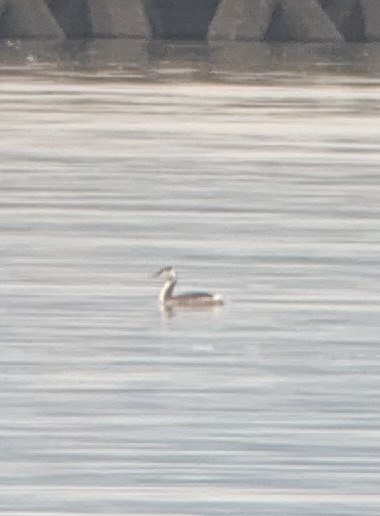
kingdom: Animalia
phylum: Chordata
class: Aves
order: Podicipediformes
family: Podicipedidae
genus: Podiceps
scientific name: Podiceps cristatus
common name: Great crested grebe
